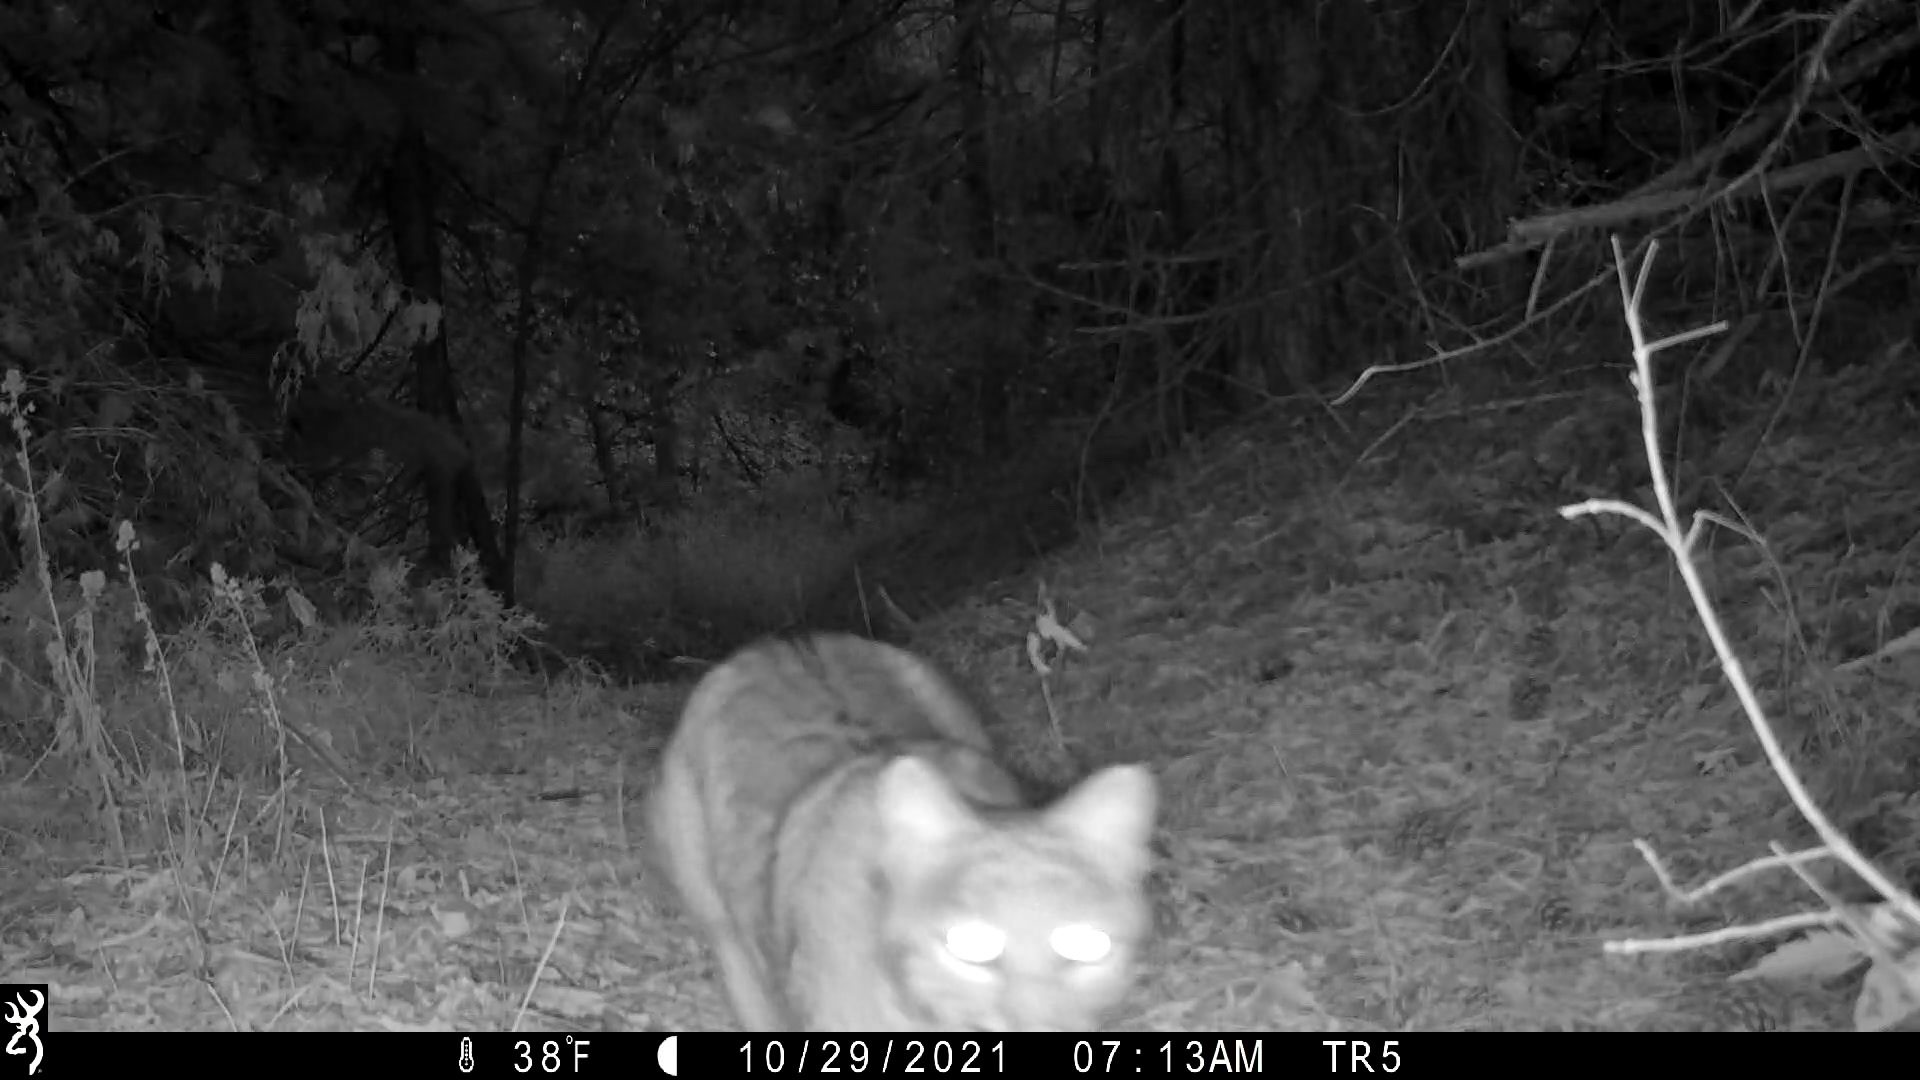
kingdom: Animalia
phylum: Chordata
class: Mammalia
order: Carnivora
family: Felidae
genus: Lynx
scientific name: Lynx rufus
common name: Bobcat
